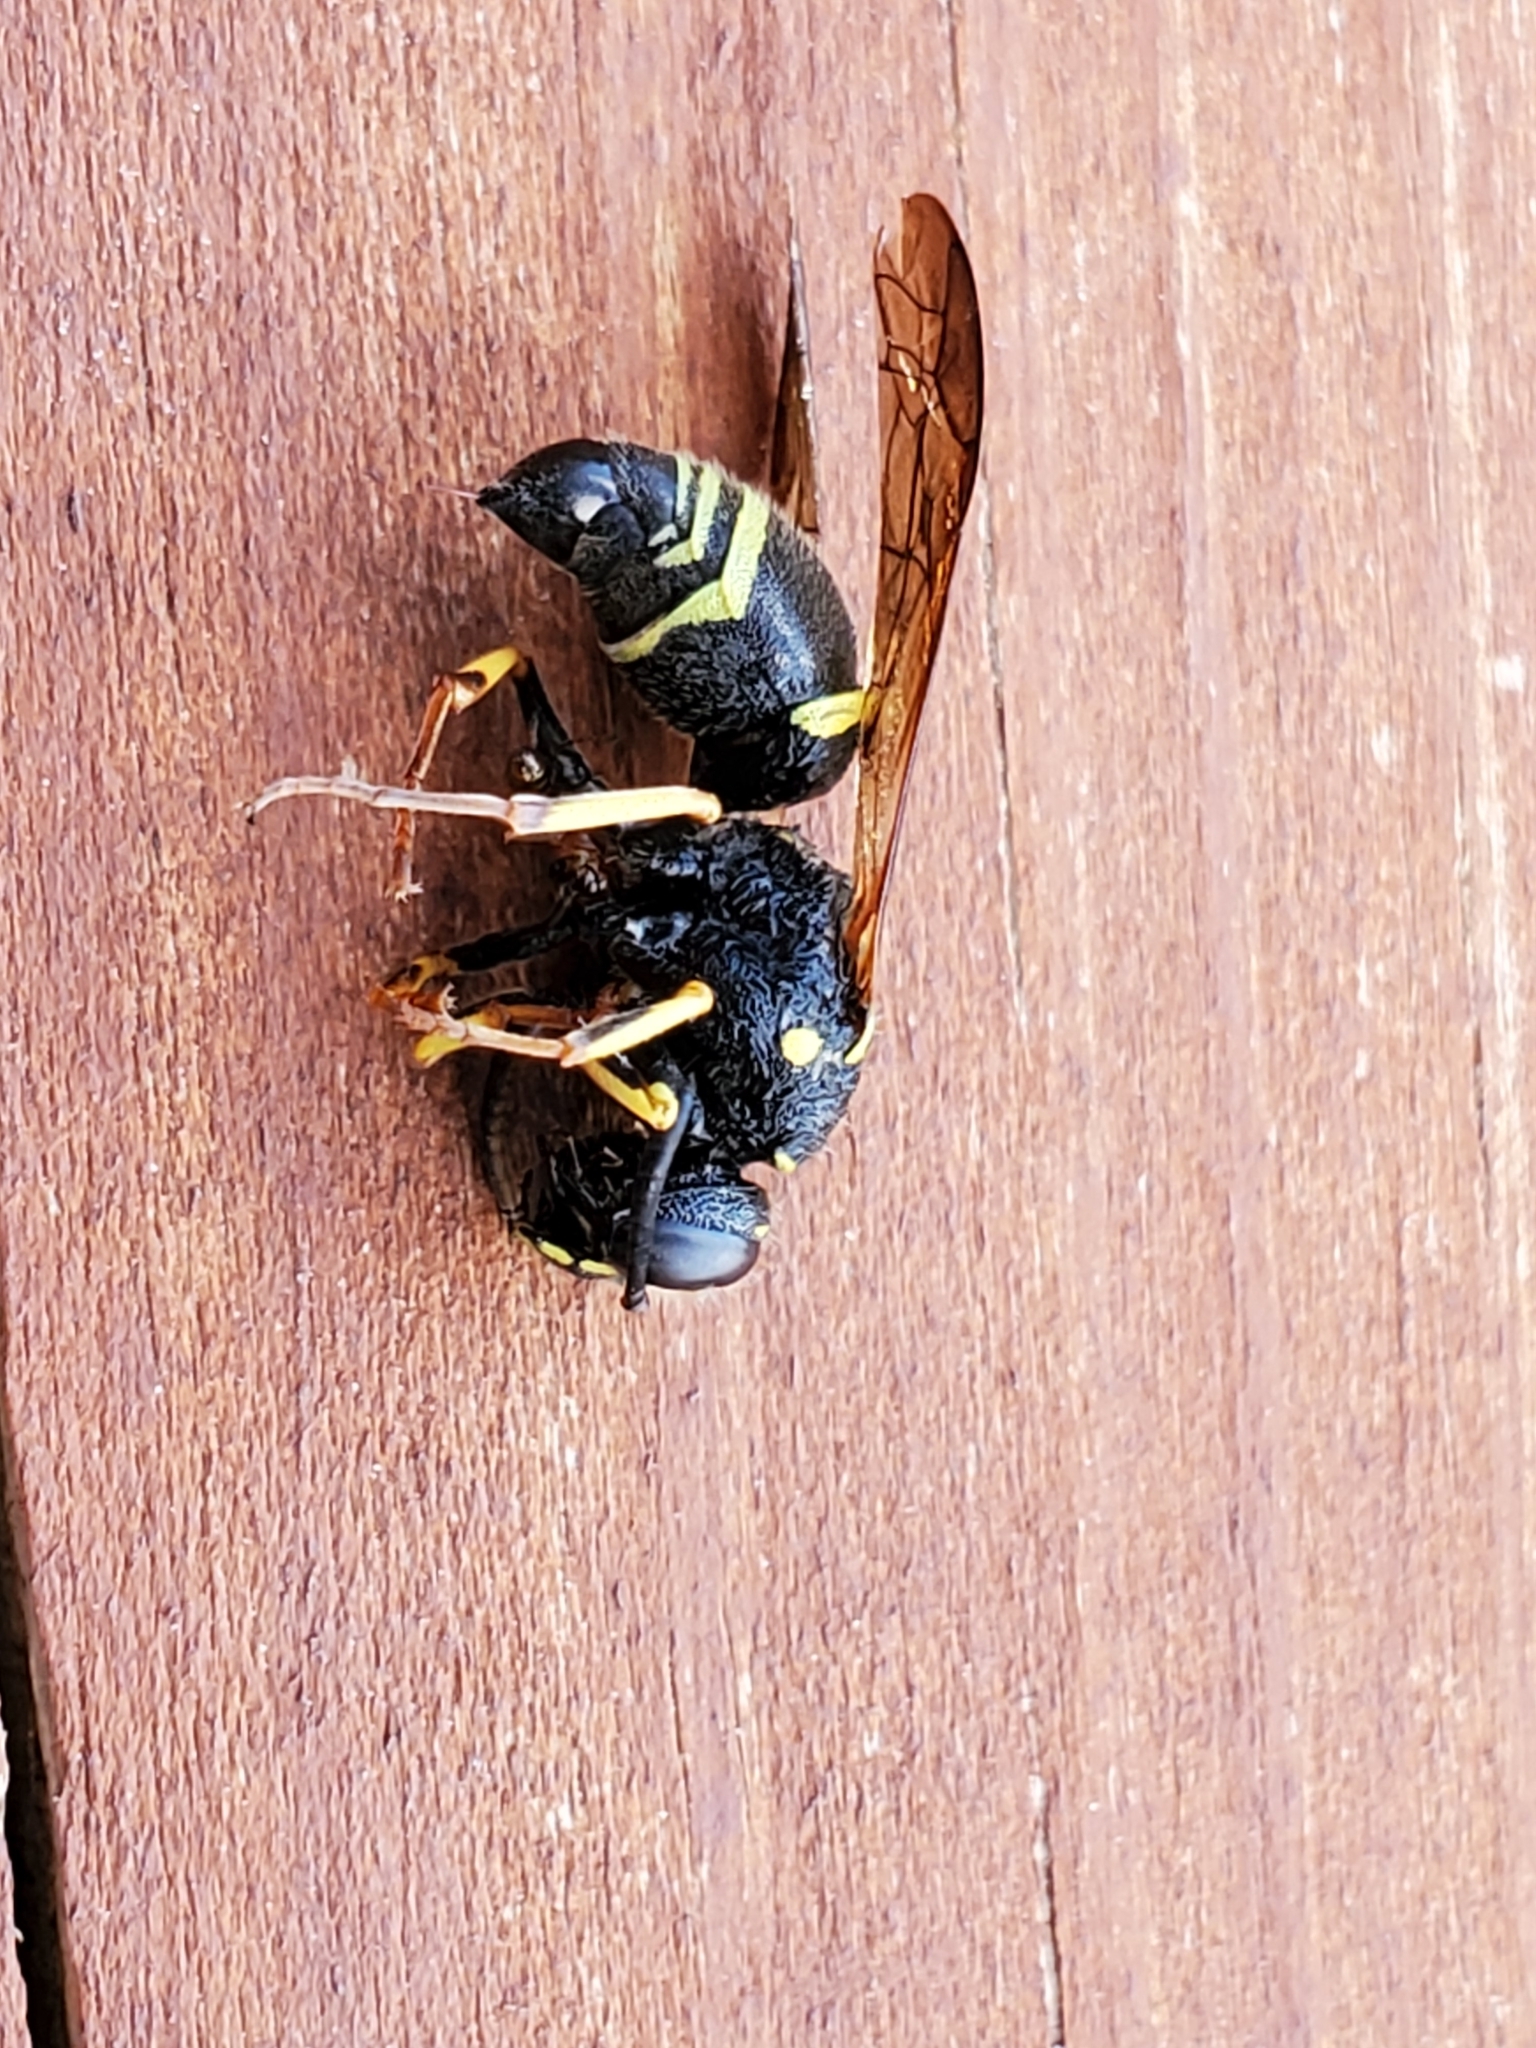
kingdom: Animalia
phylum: Arthropoda
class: Insecta
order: Hymenoptera
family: Vespidae
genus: Ancistrocerus
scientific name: Ancistrocerus catskill
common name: Vespid wasp
